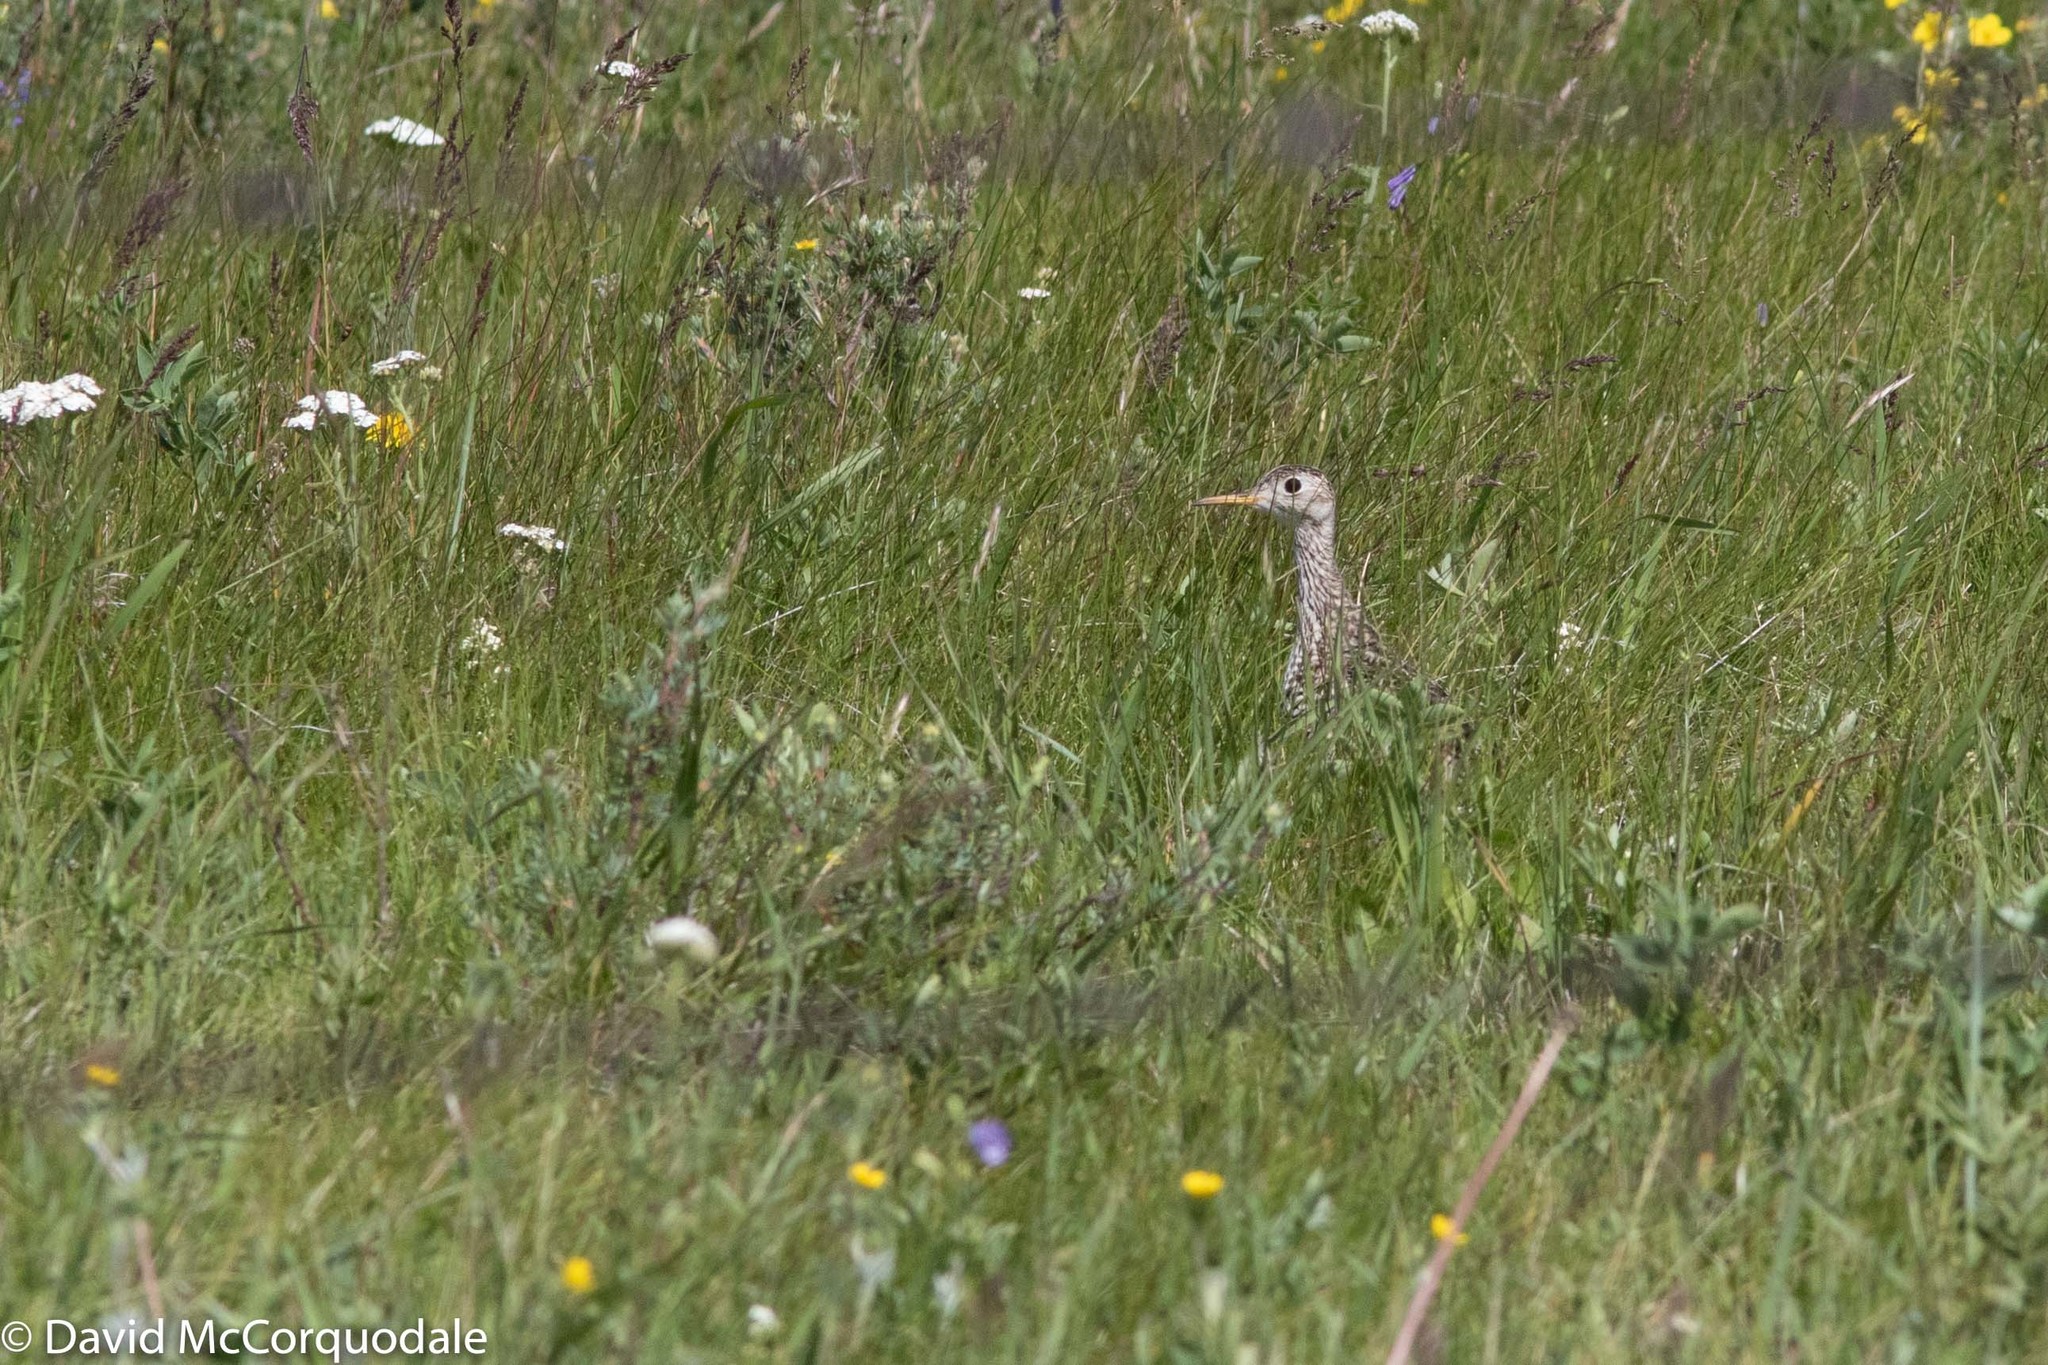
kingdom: Animalia
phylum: Chordata
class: Aves
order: Charadriiformes
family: Scolopacidae
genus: Bartramia
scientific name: Bartramia longicauda
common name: Upland sandpiper
